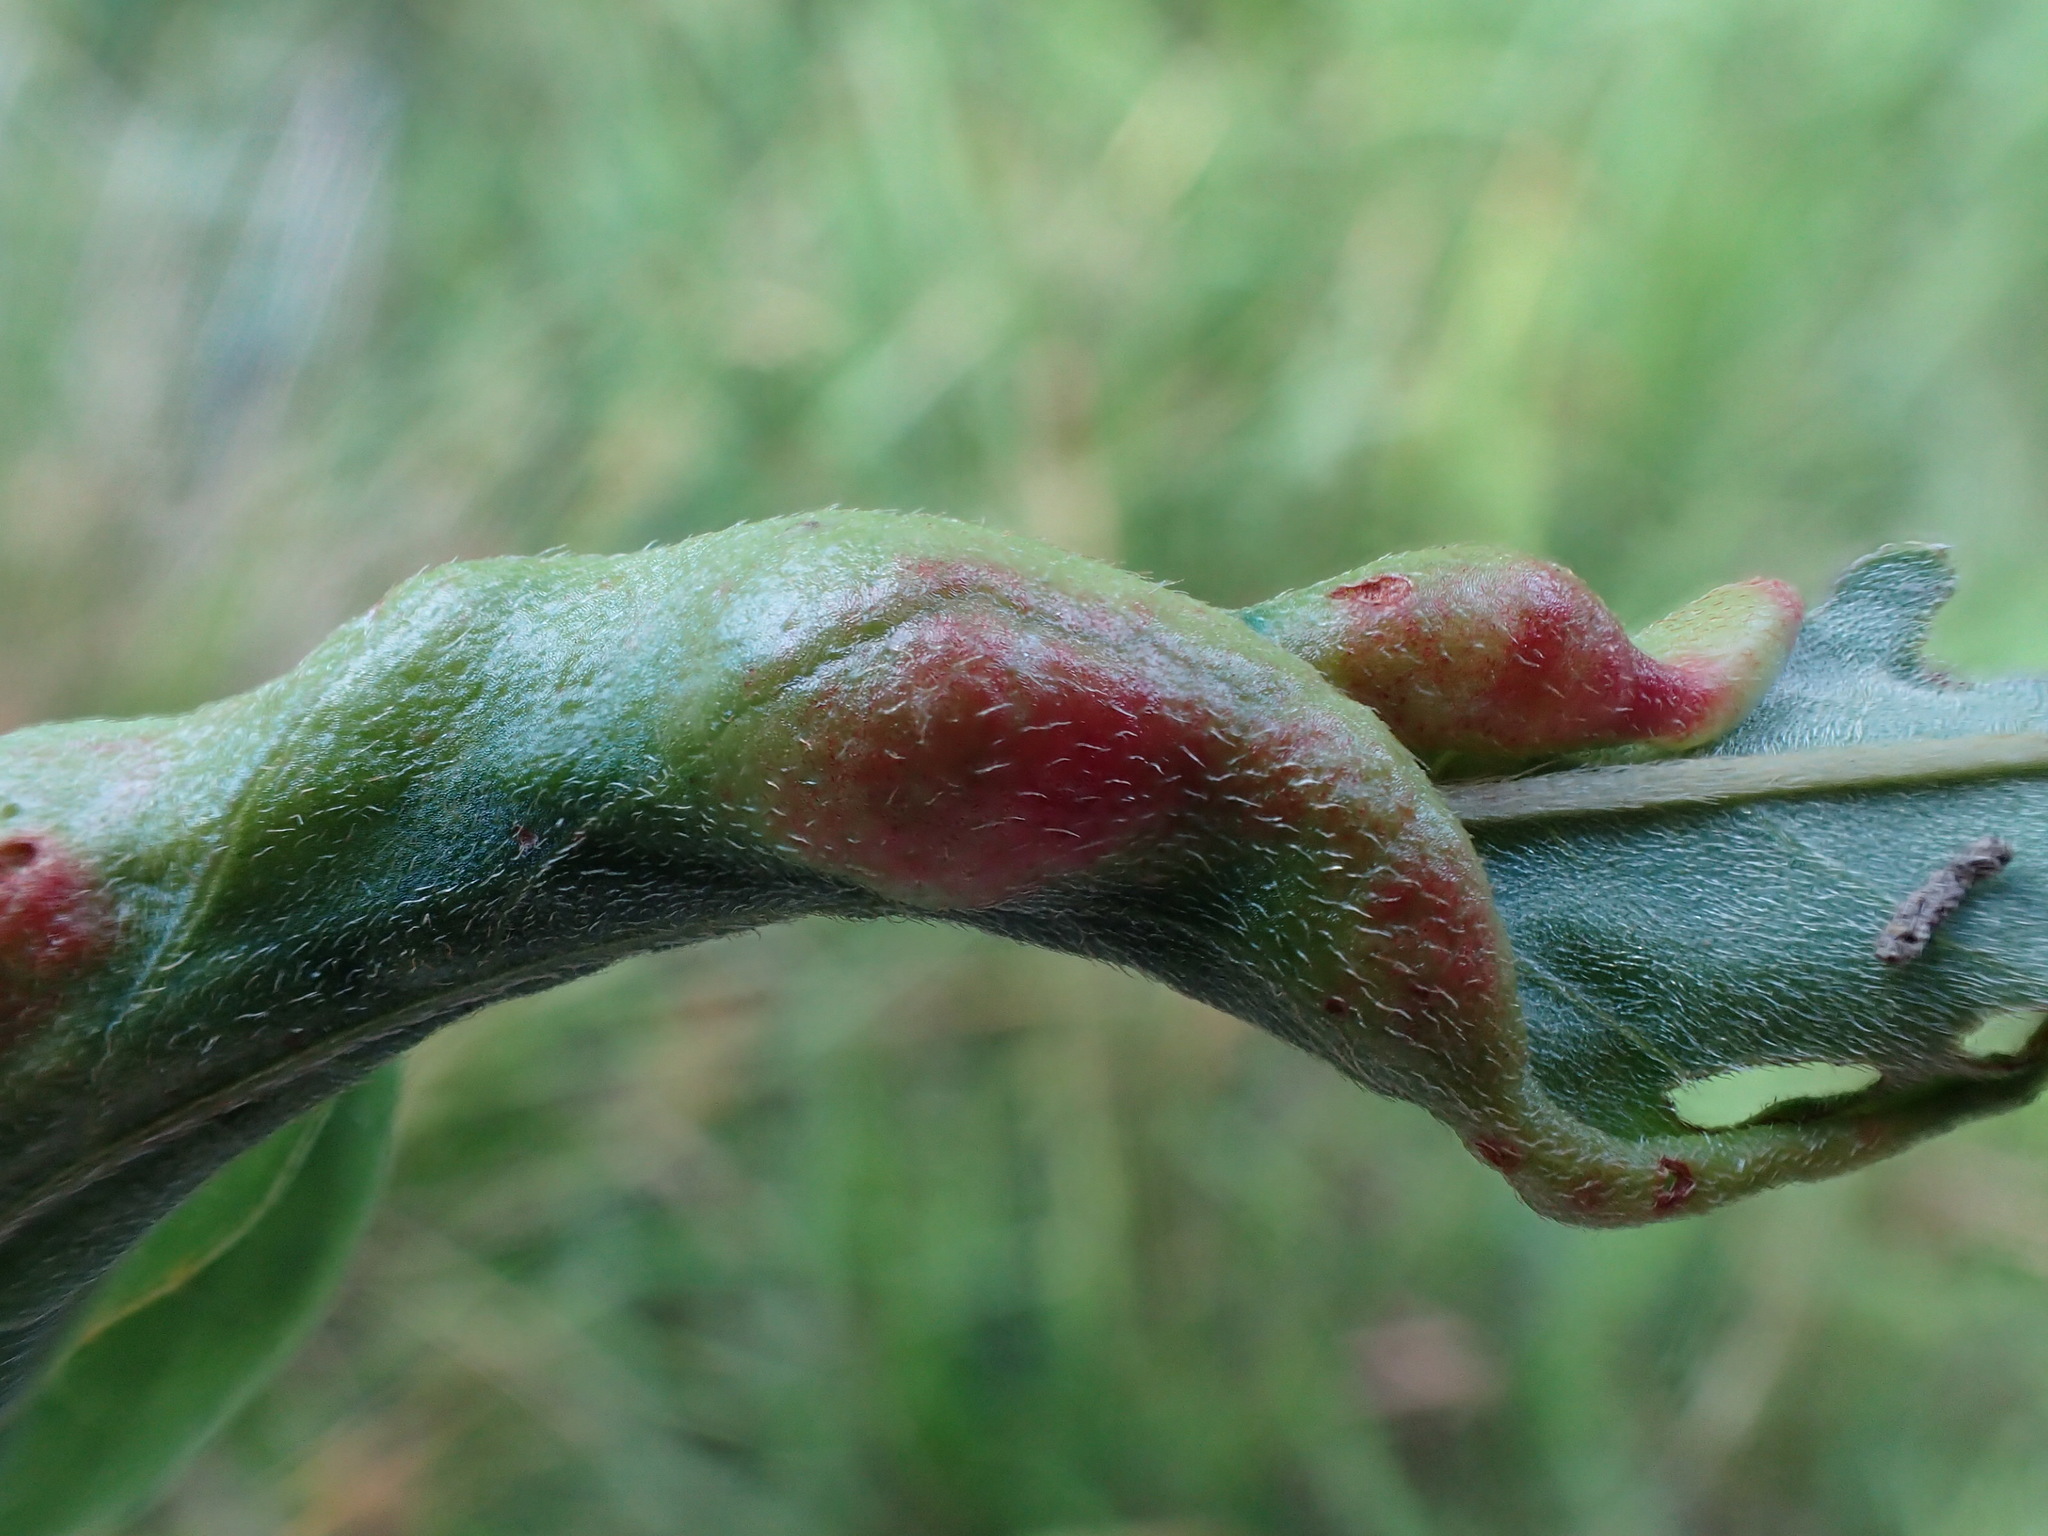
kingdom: Animalia
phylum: Arthropoda
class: Insecta
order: Diptera
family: Cecidomyiidae
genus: Wachtliella
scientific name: Wachtliella persicariae
